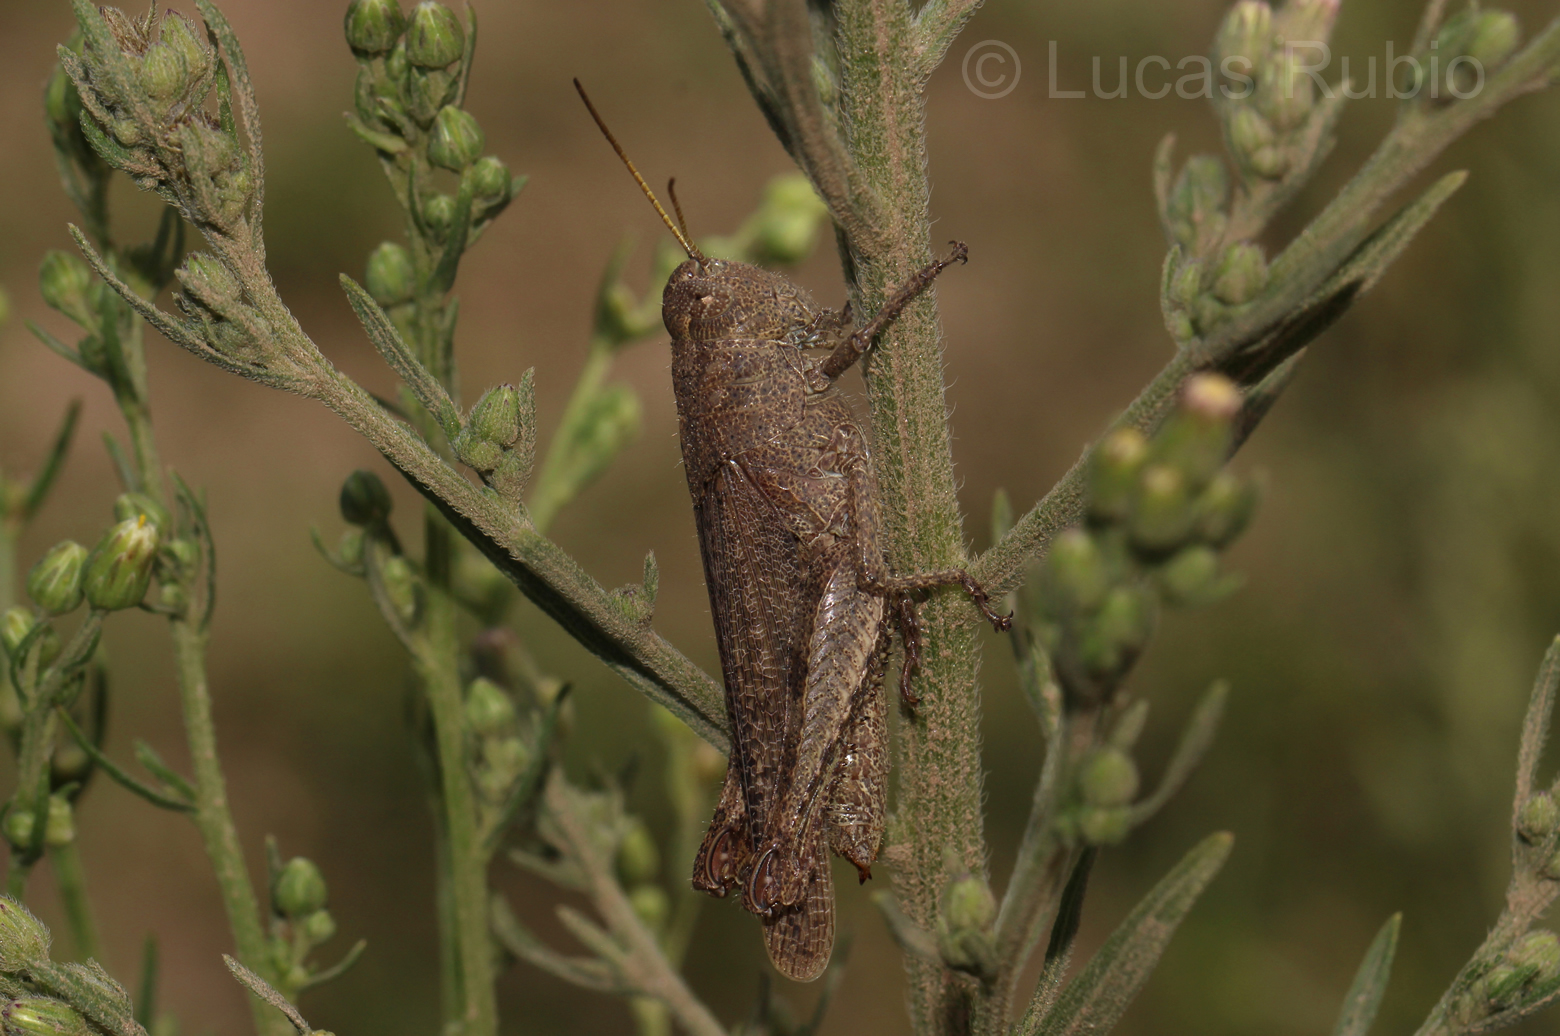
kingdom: Animalia
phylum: Arthropoda
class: Insecta
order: Orthoptera
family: Acrididae
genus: Ronderosia
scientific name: Ronderosia forcipata
